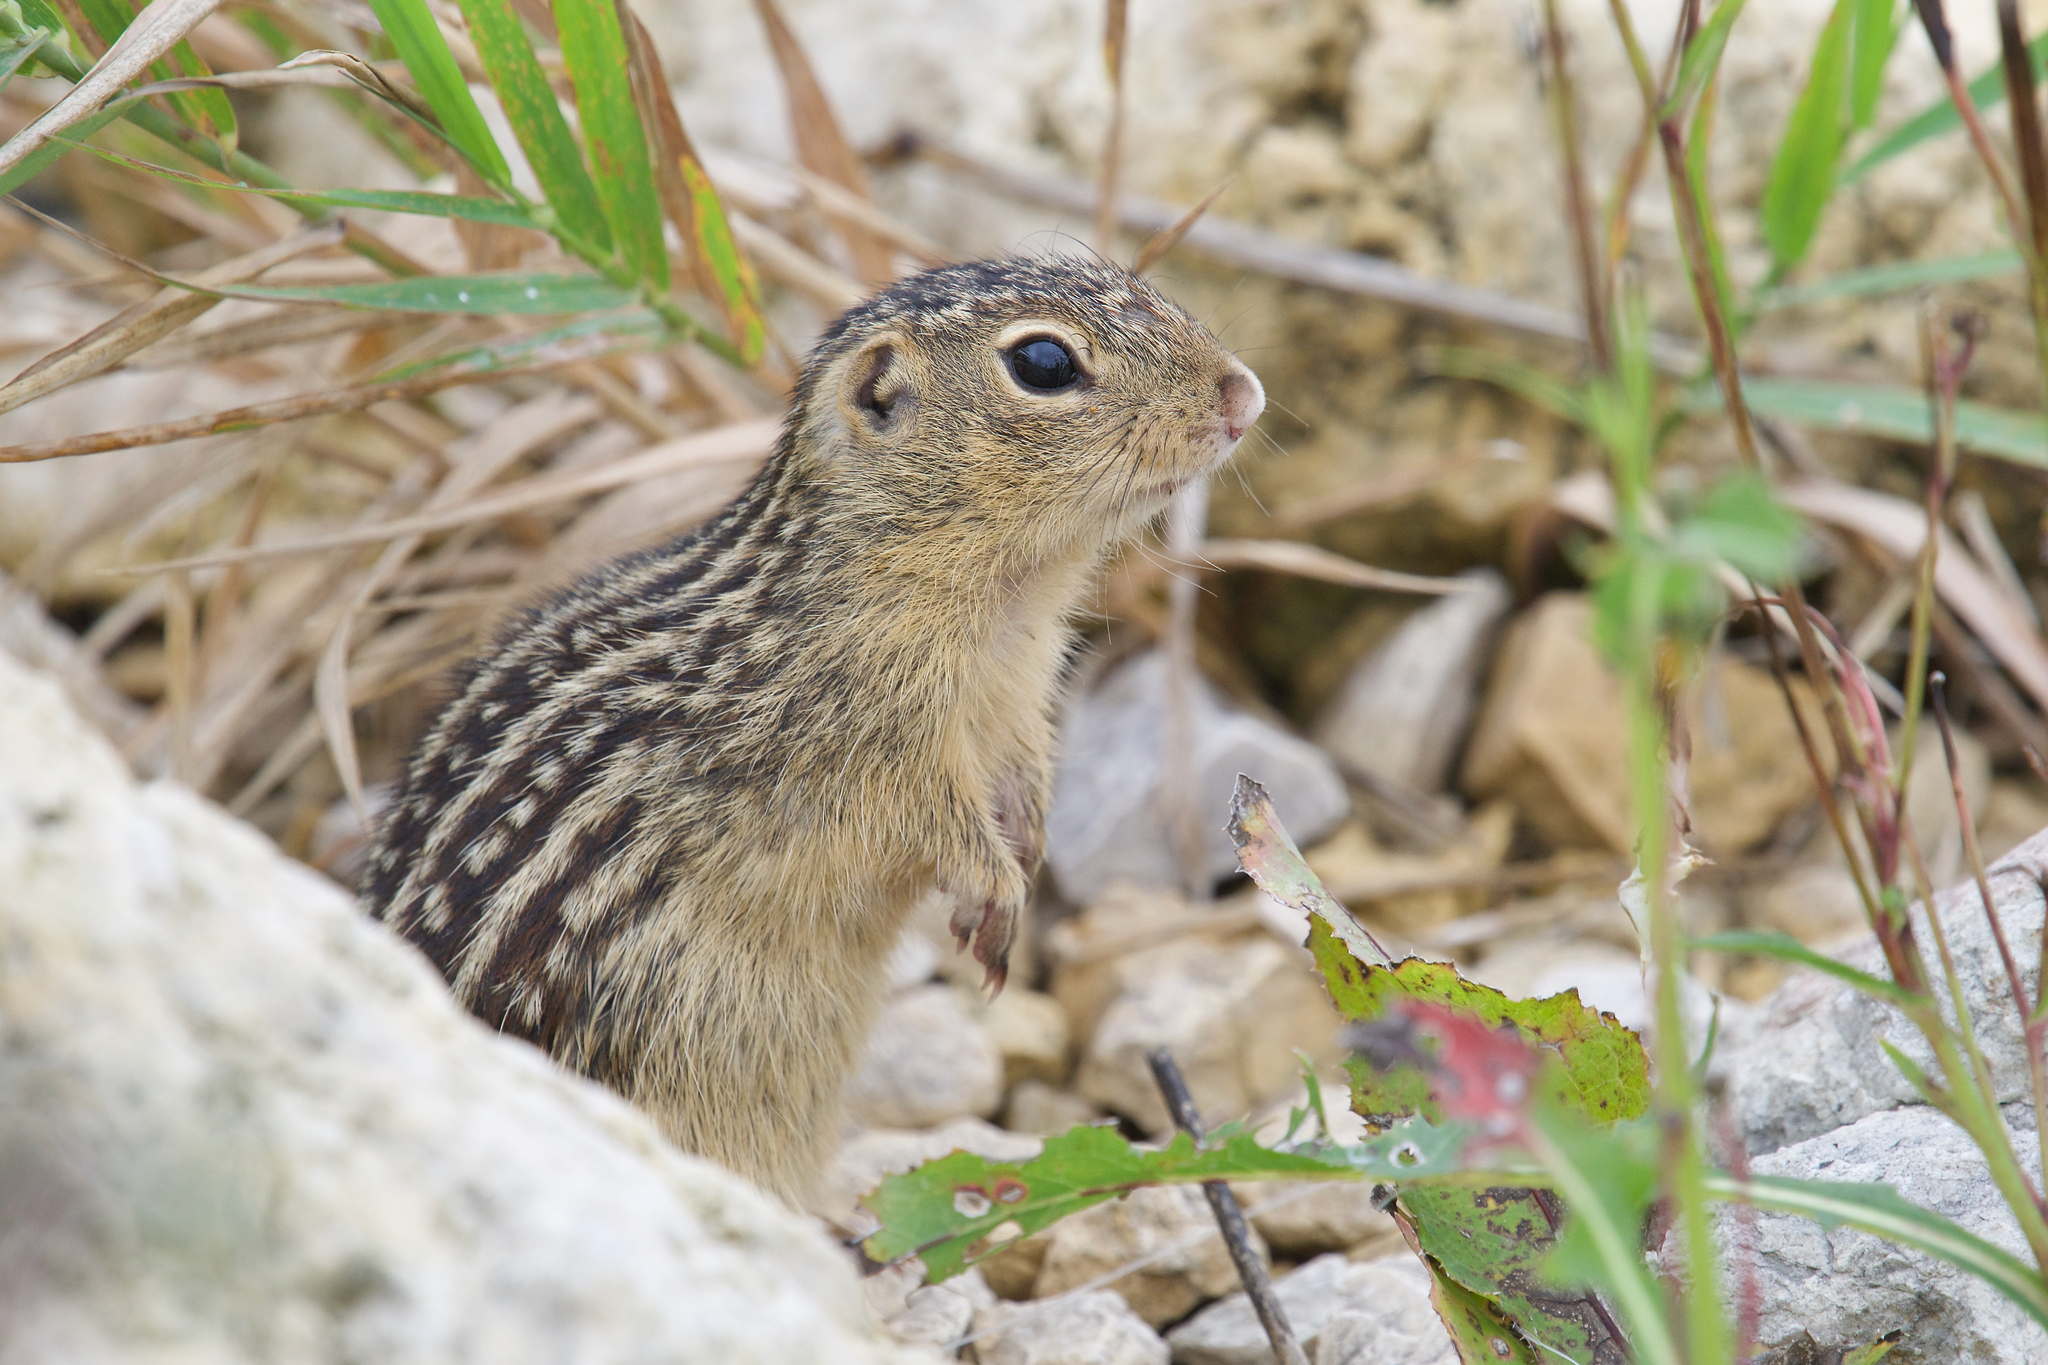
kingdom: Animalia
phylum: Chordata
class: Mammalia
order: Rodentia
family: Sciuridae
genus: Ictidomys
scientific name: Ictidomys tridecemlineatus
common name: Thirteen-lined ground squirrel
